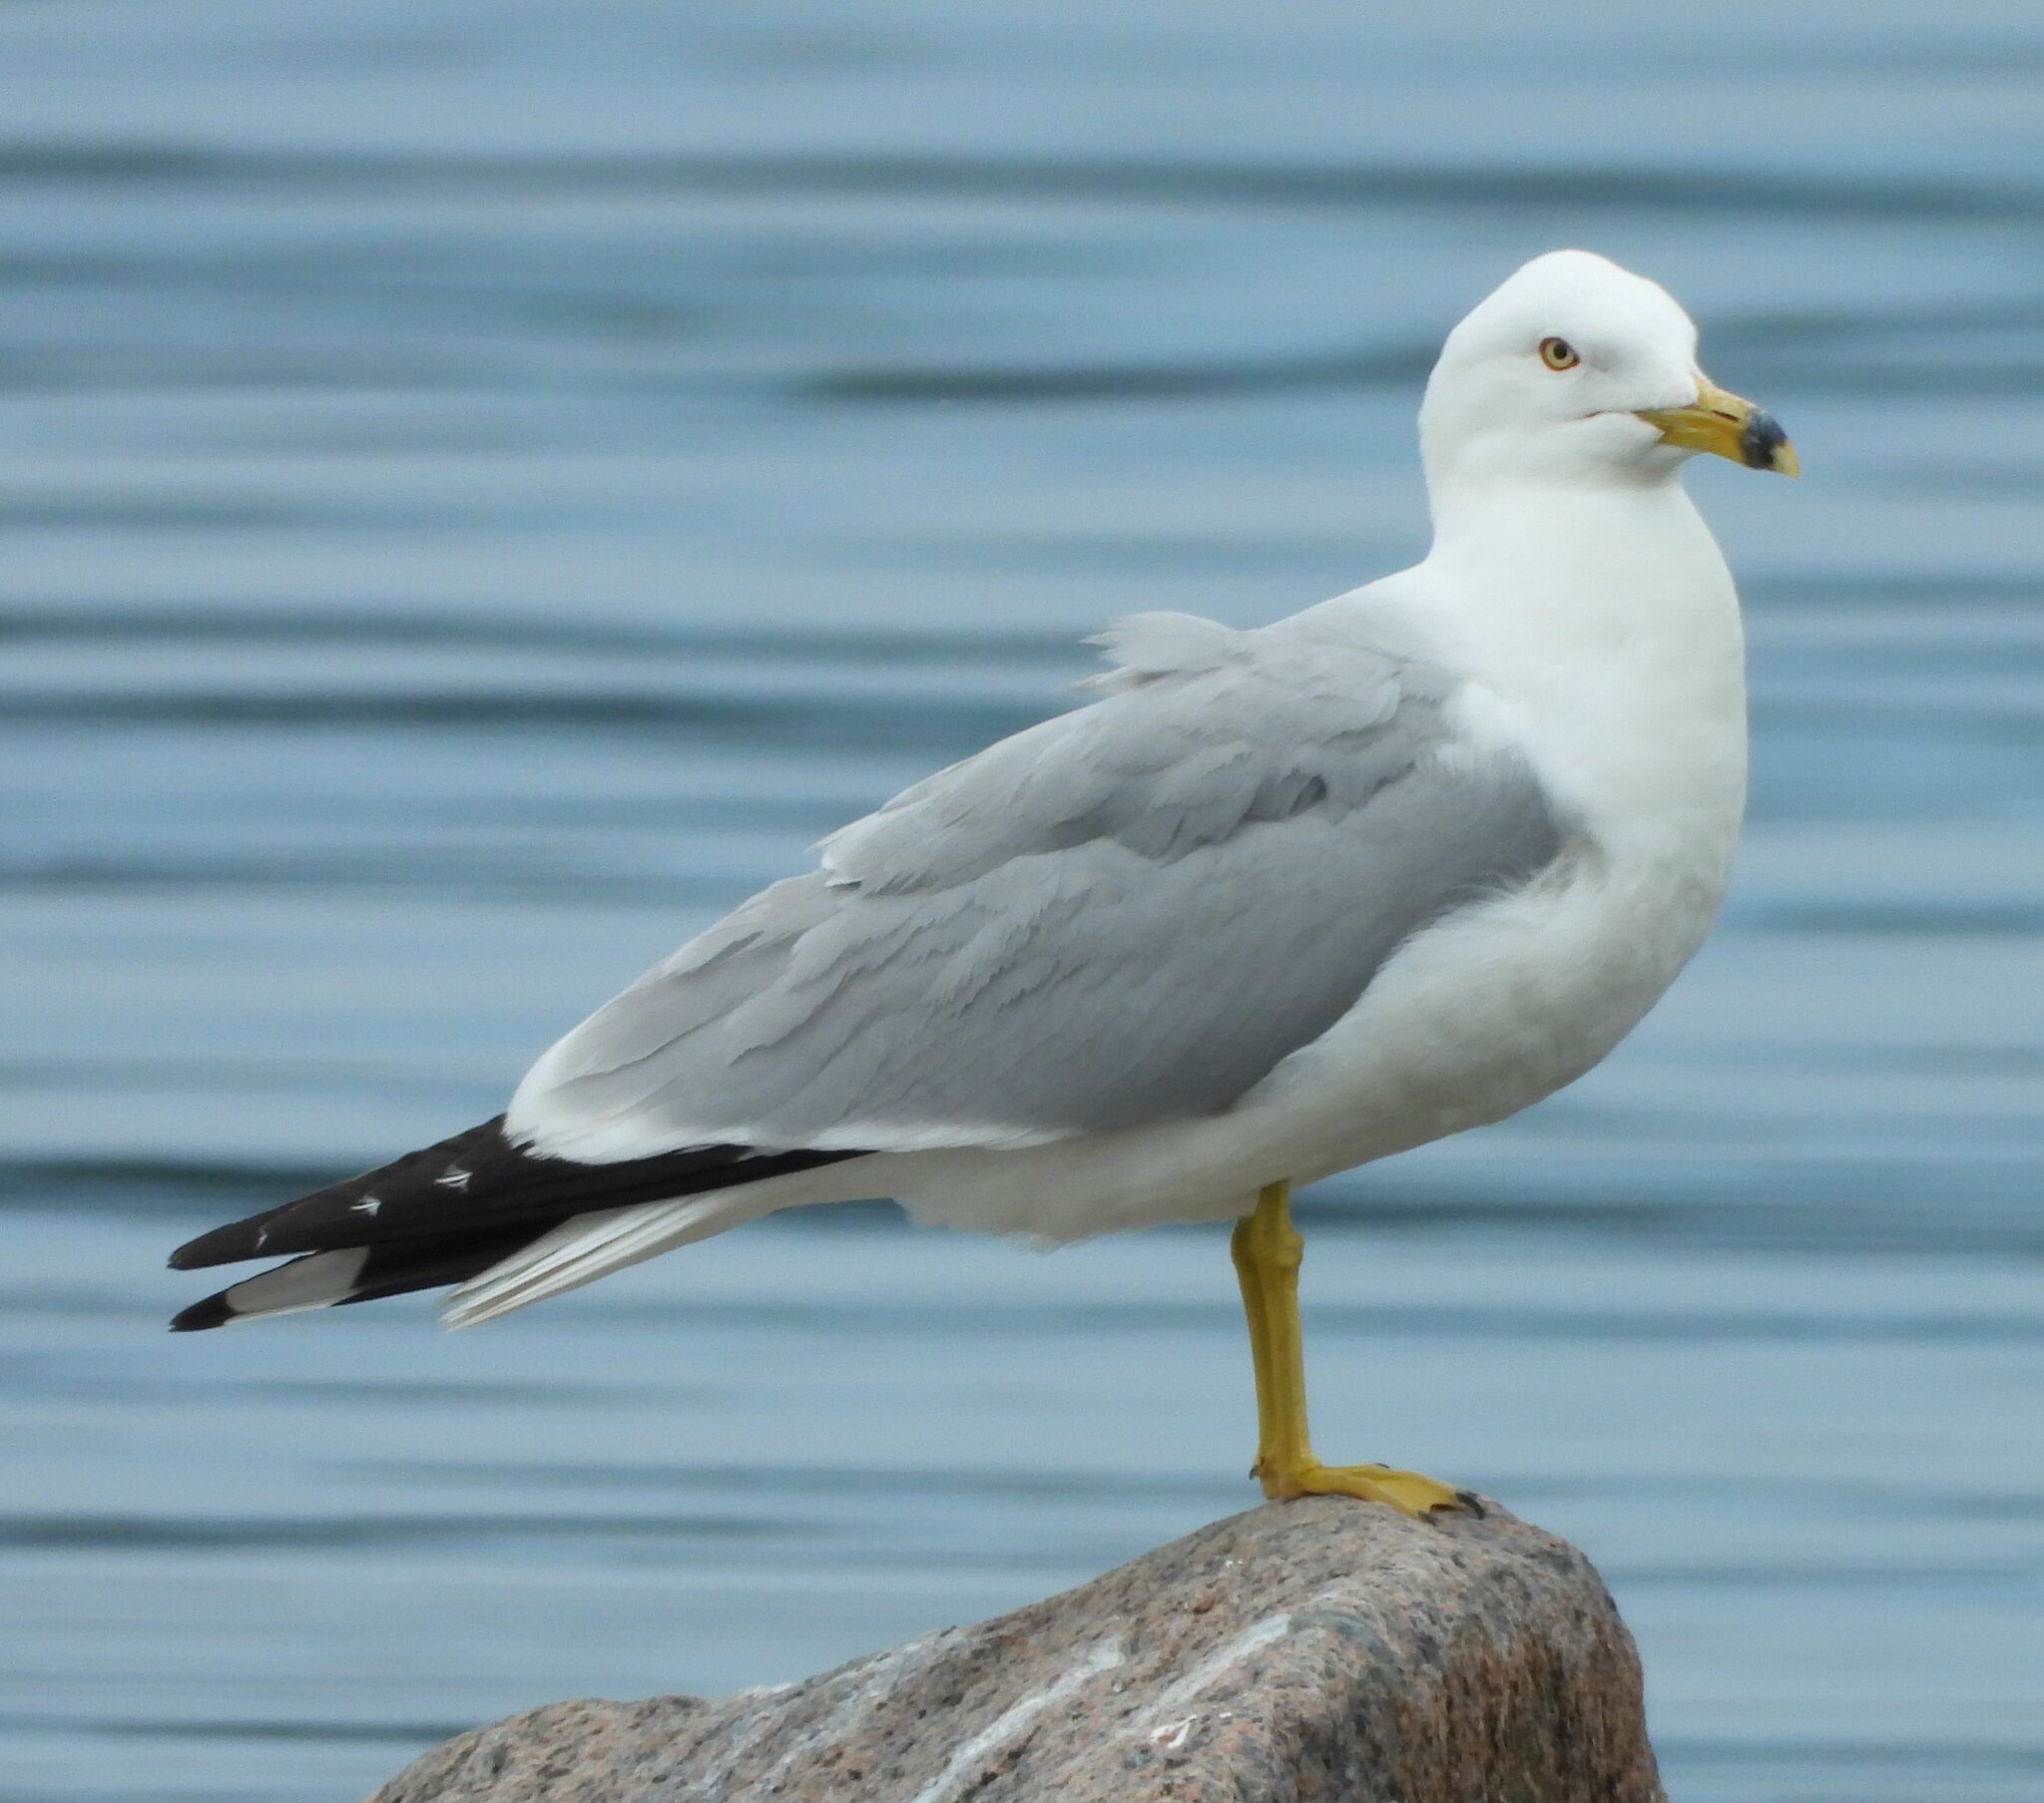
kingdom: Animalia
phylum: Chordata
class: Aves
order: Charadriiformes
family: Laridae
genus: Larus
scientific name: Larus delawarensis
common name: Ring-billed gull
